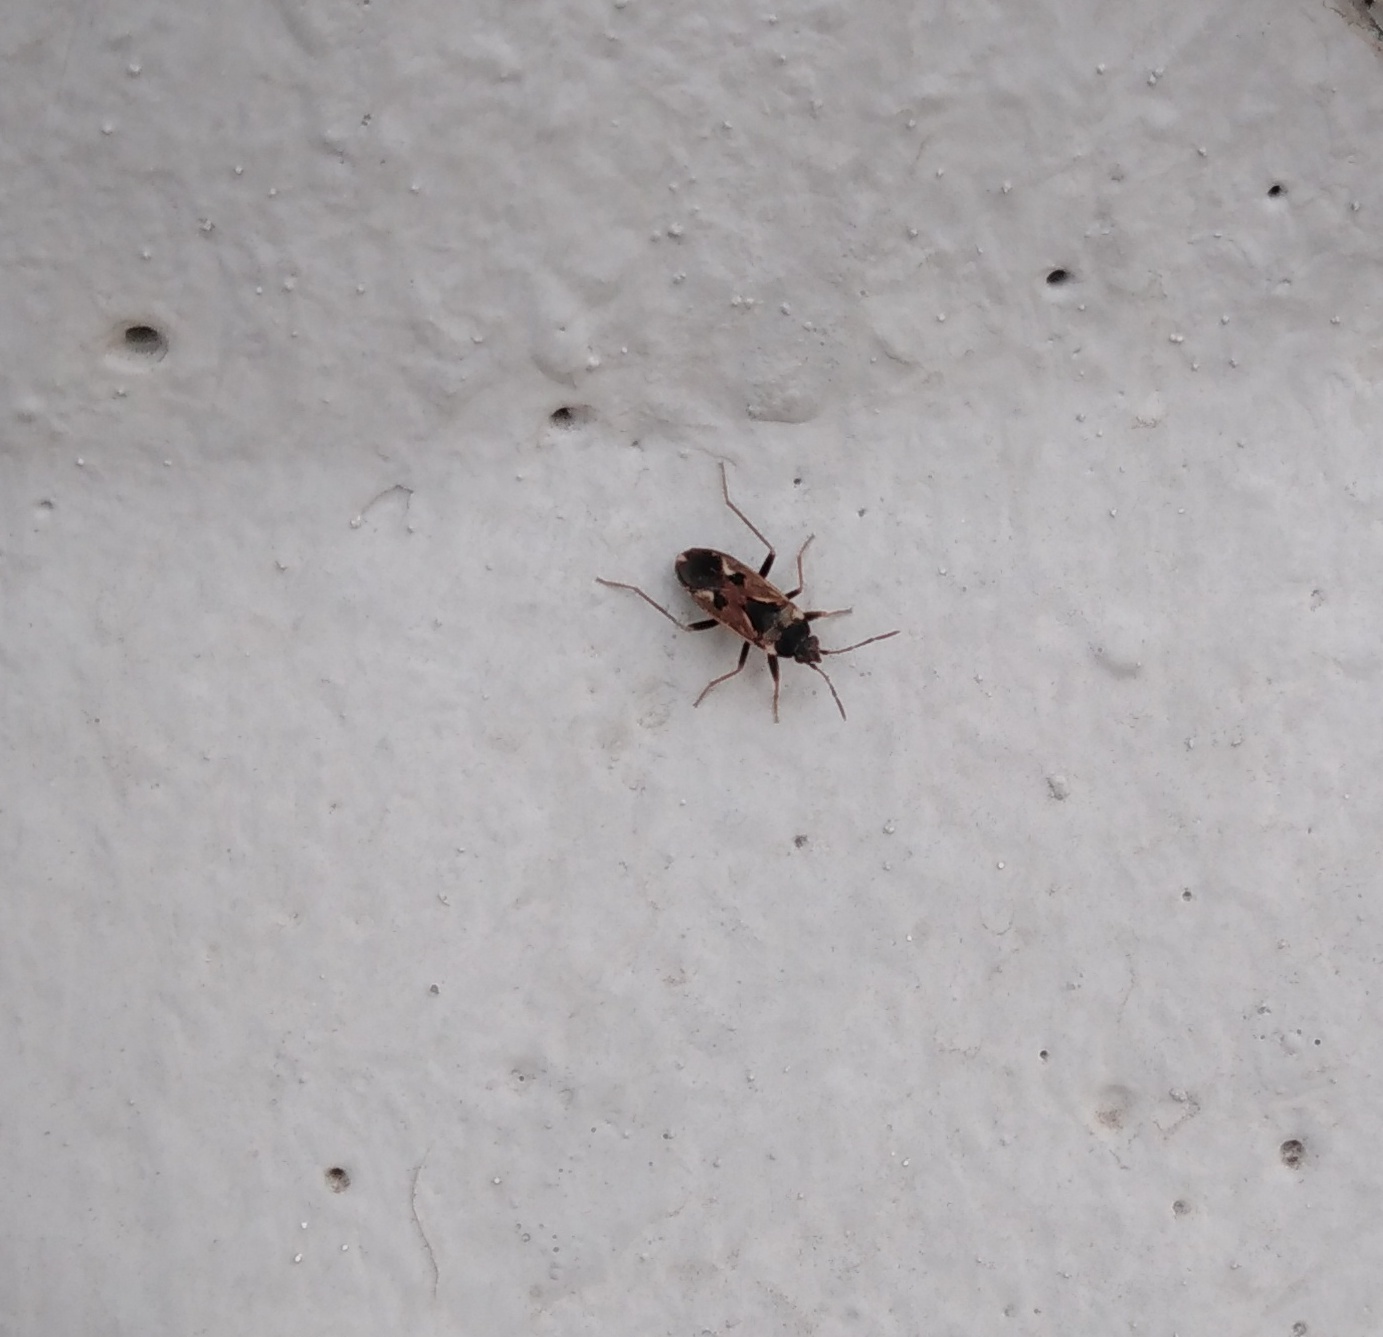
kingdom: Animalia
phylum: Arthropoda
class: Insecta
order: Hemiptera
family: Rhyparochromidae
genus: Rhyparochromus
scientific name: Rhyparochromus vulgaris
